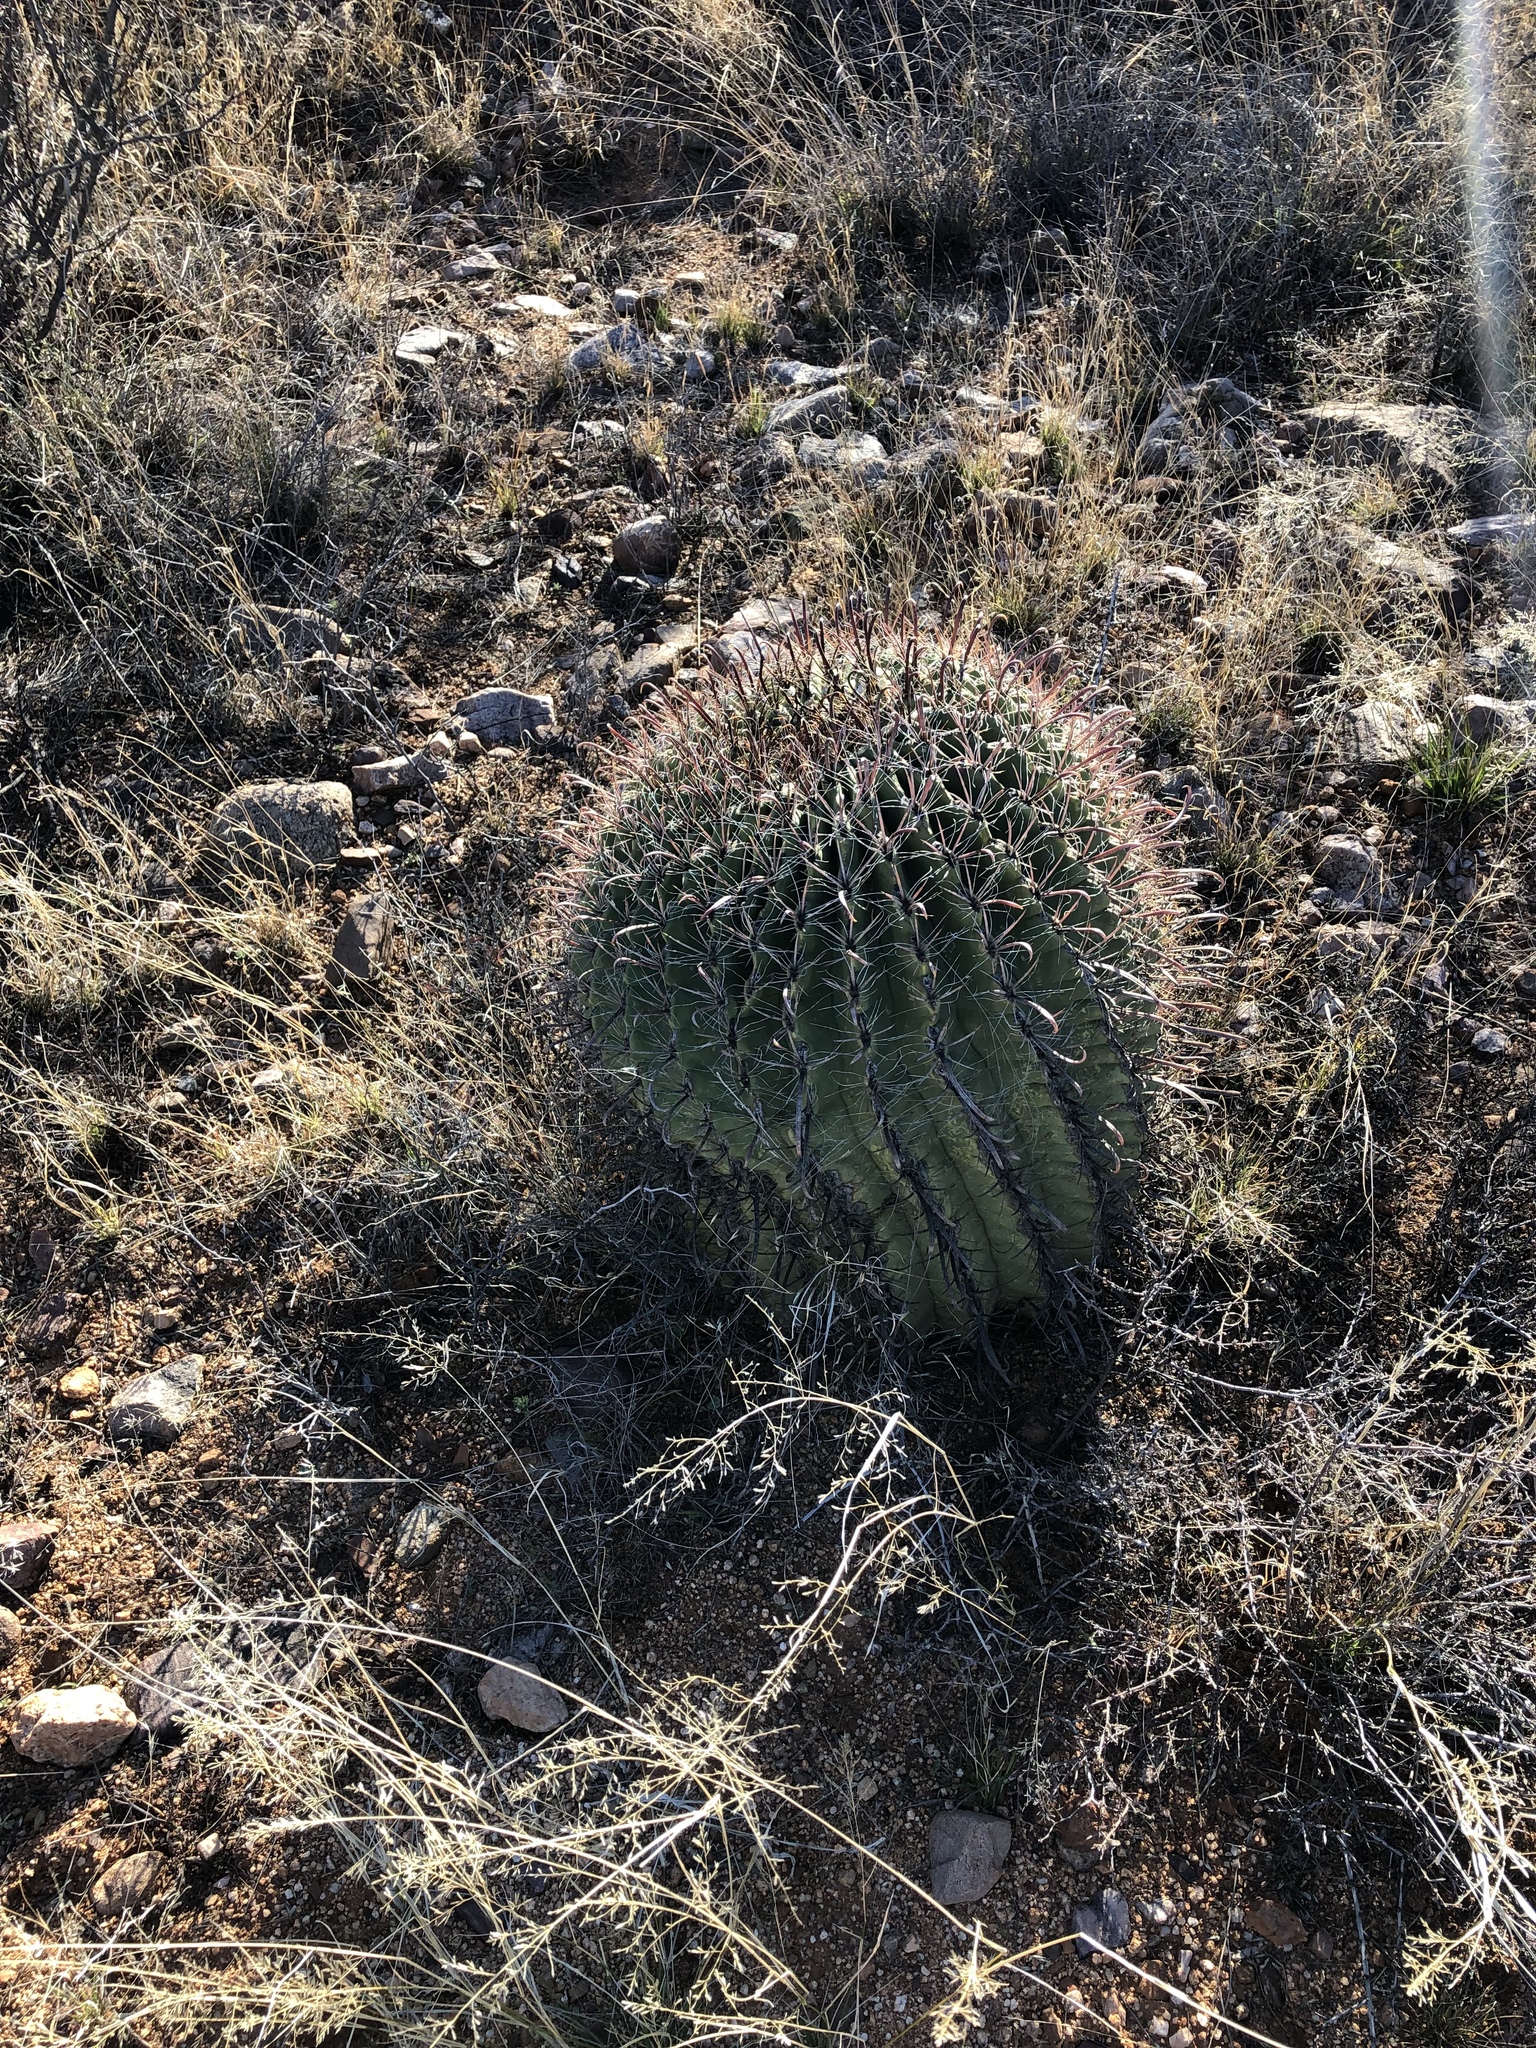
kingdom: Plantae
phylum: Tracheophyta
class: Magnoliopsida
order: Caryophyllales
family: Cactaceae
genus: Ferocactus
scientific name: Ferocactus wislizeni
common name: Candy barrel cactus
